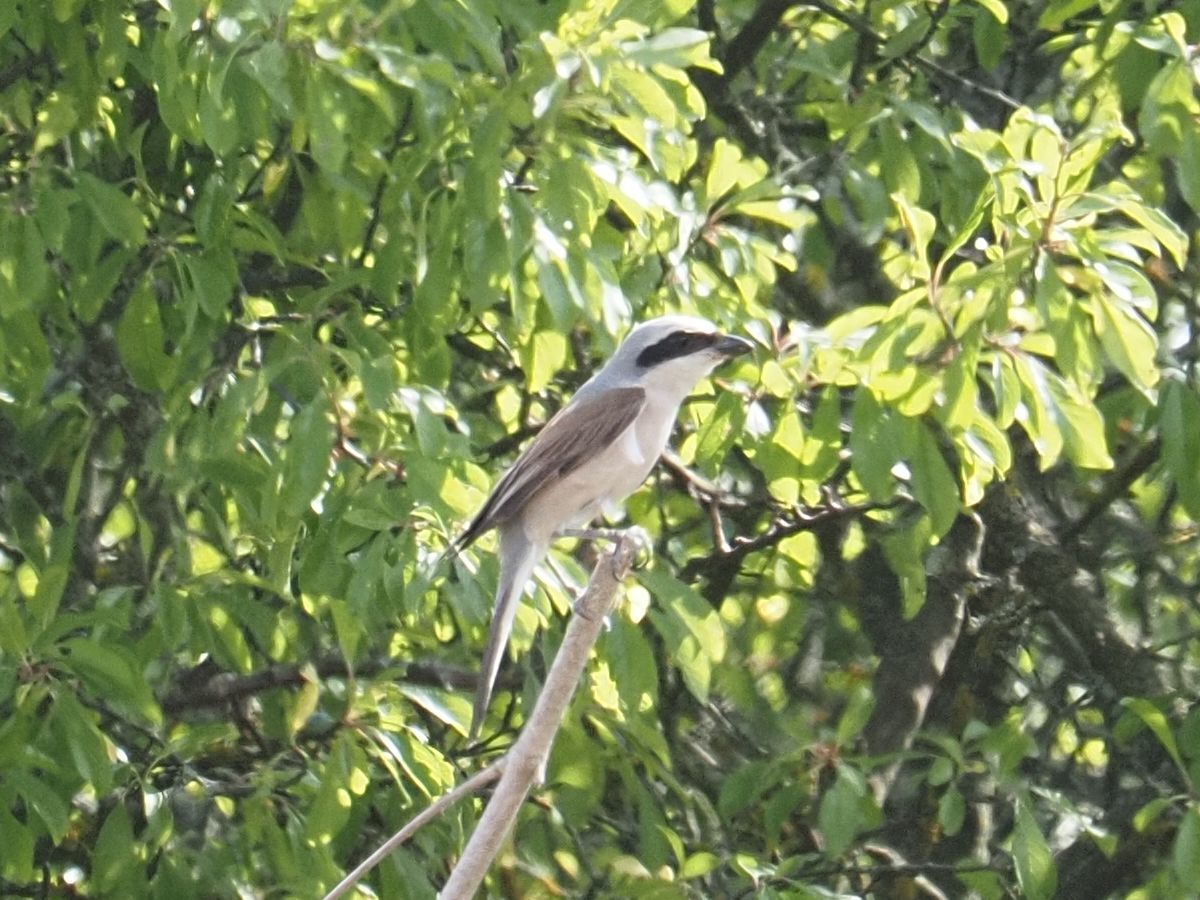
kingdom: Animalia
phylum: Chordata
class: Aves
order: Passeriformes
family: Laniidae
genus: Lanius
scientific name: Lanius collurio
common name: Red-backed shrike
